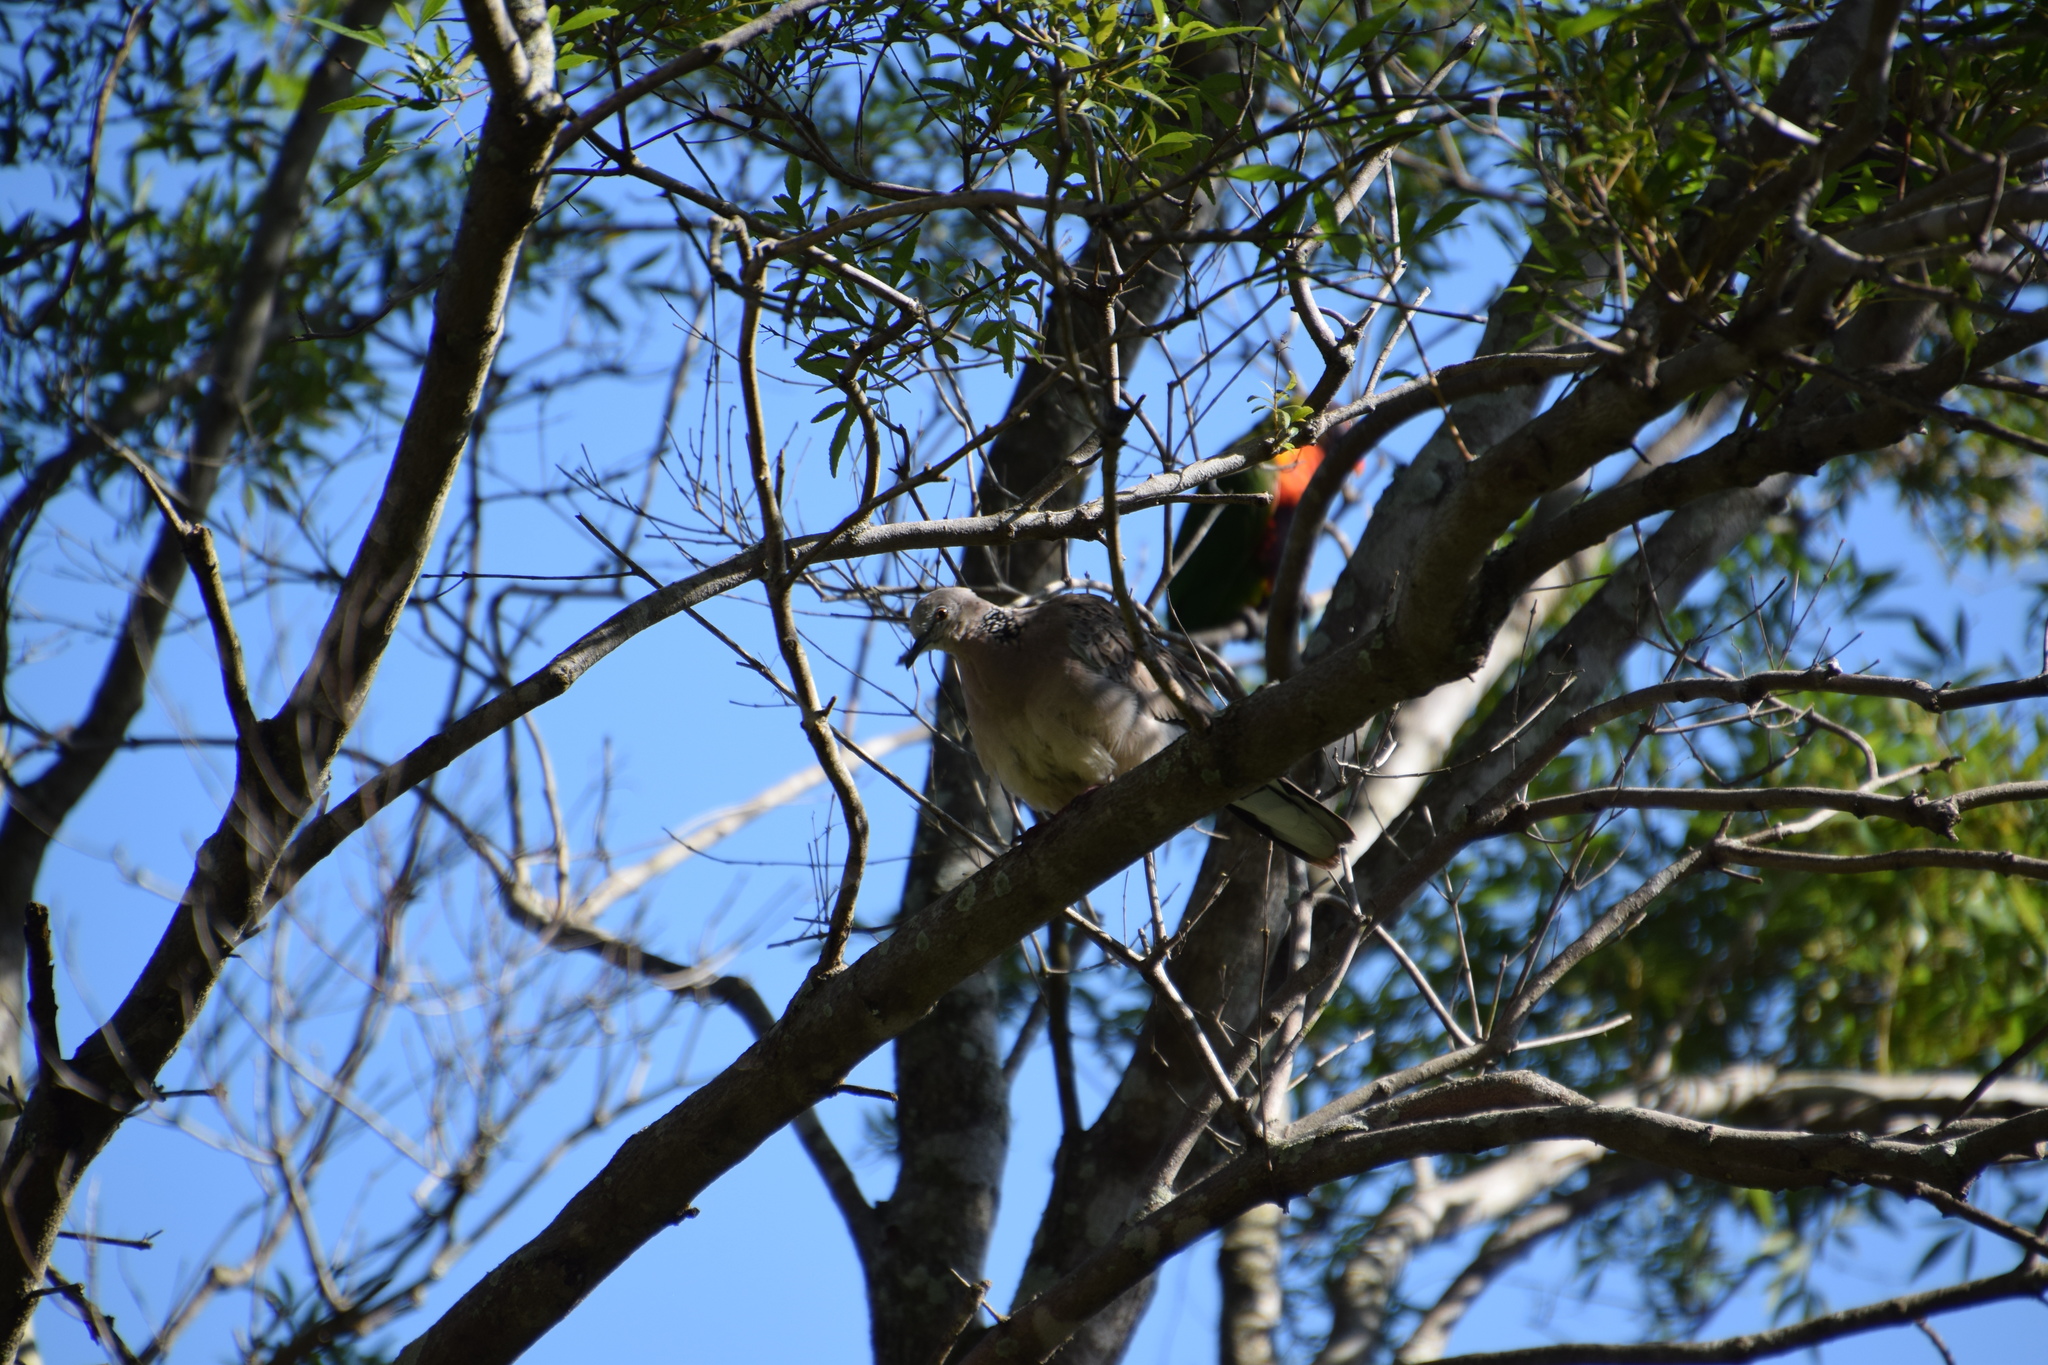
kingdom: Animalia
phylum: Chordata
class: Aves
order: Columbiformes
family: Columbidae
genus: Spilopelia
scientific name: Spilopelia chinensis
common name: Spotted dove
